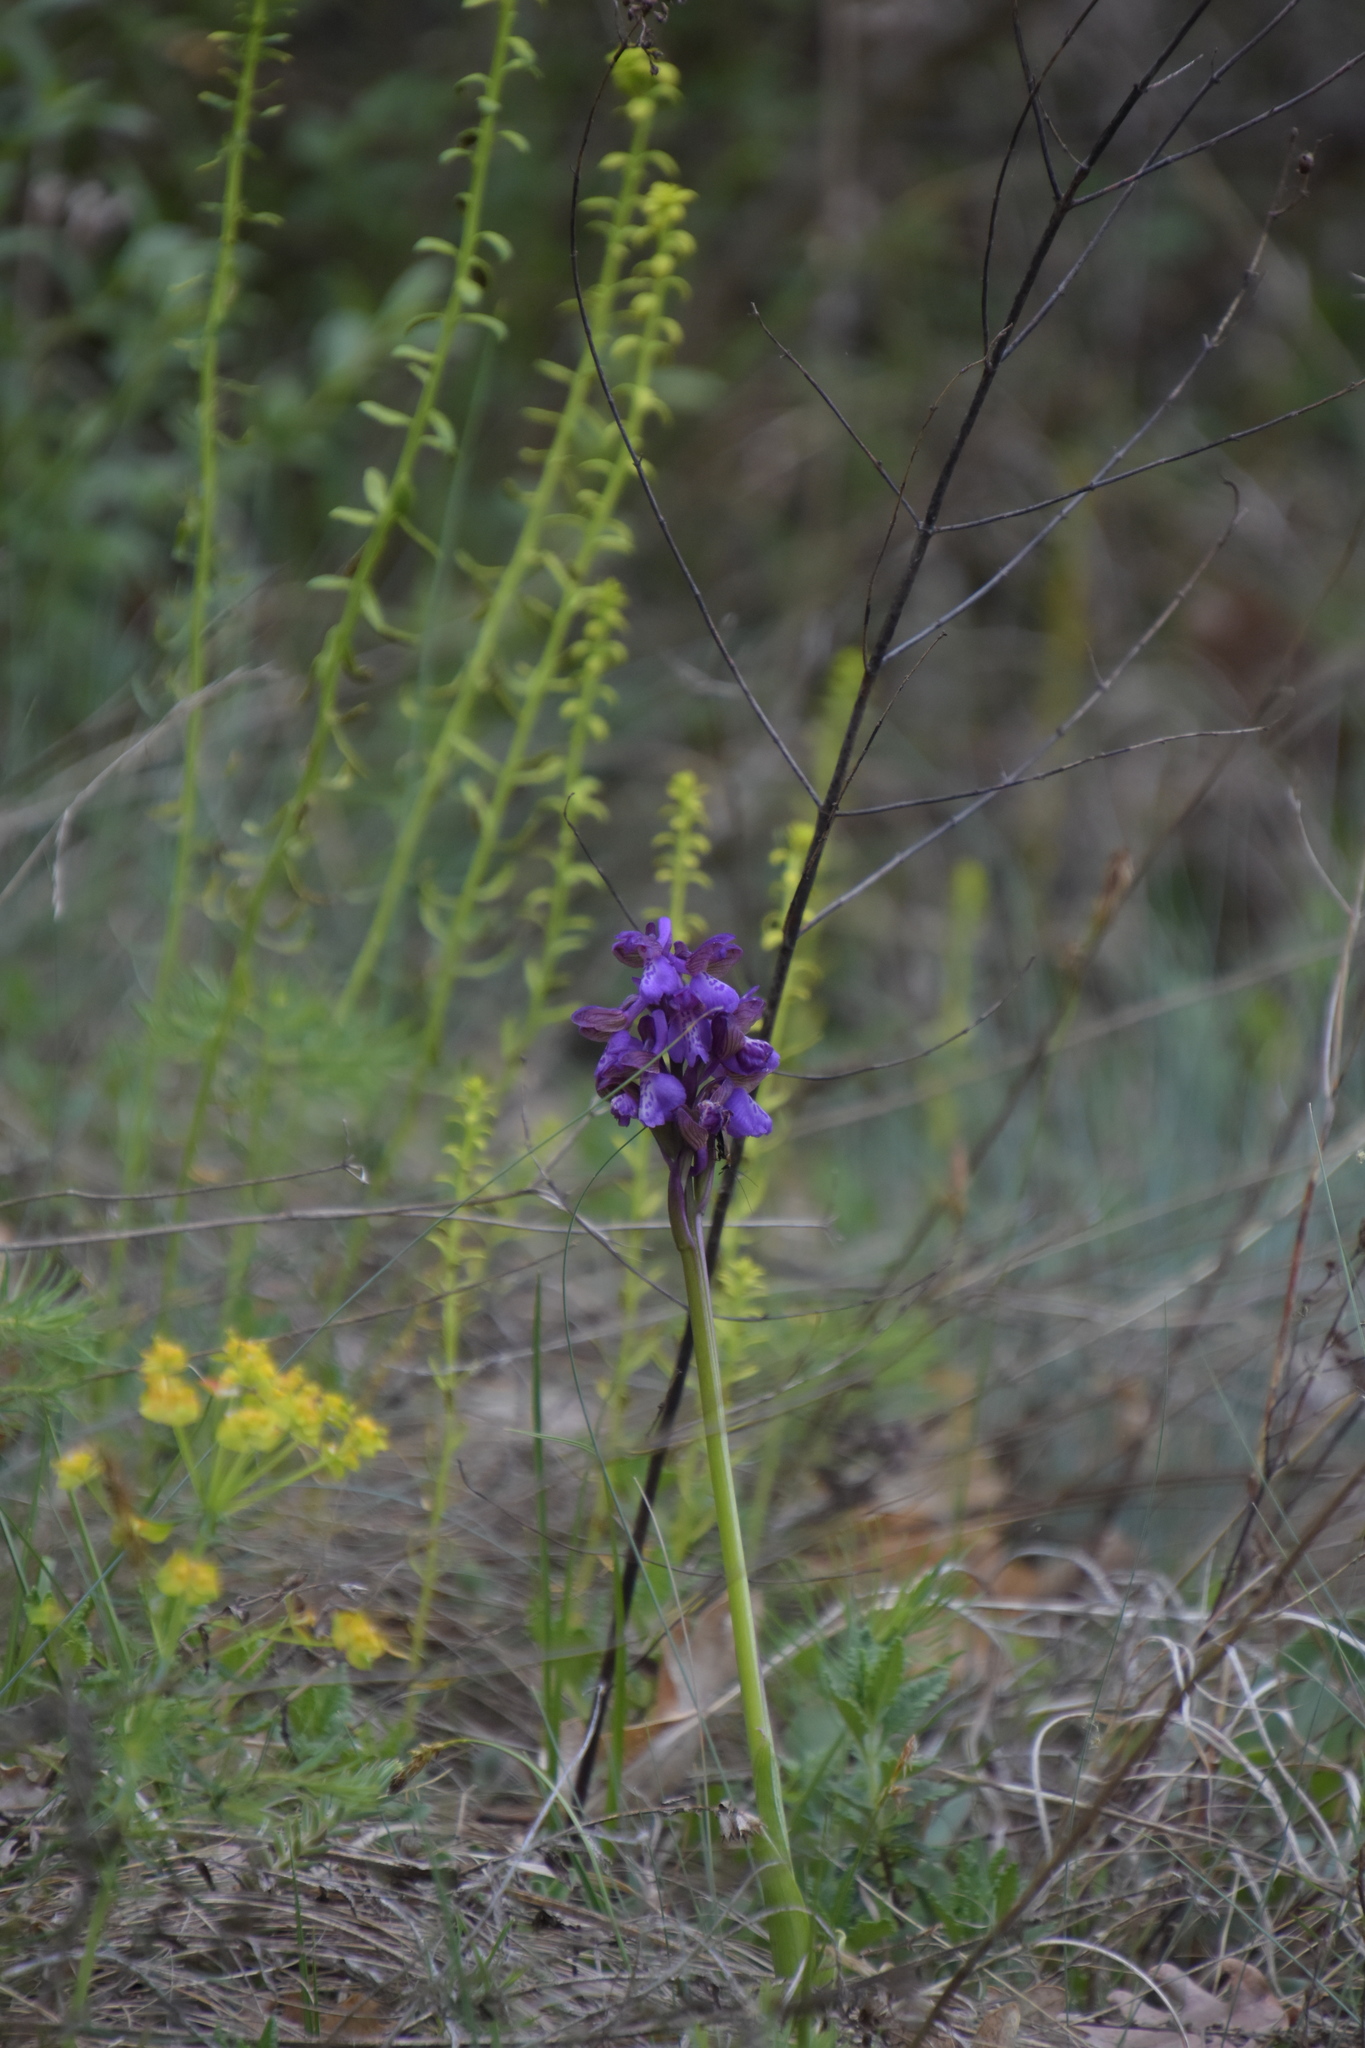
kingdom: Plantae
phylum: Tracheophyta
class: Liliopsida
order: Asparagales
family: Orchidaceae
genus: Anacamptis
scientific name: Anacamptis morio
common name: Green-winged orchid
